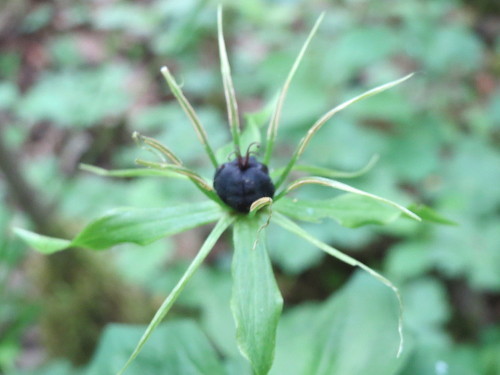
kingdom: Plantae
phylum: Tracheophyta
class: Liliopsida
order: Liliales
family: Melanthiaceae
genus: Paris
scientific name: Paris quadrifolia
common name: Herb-paris
